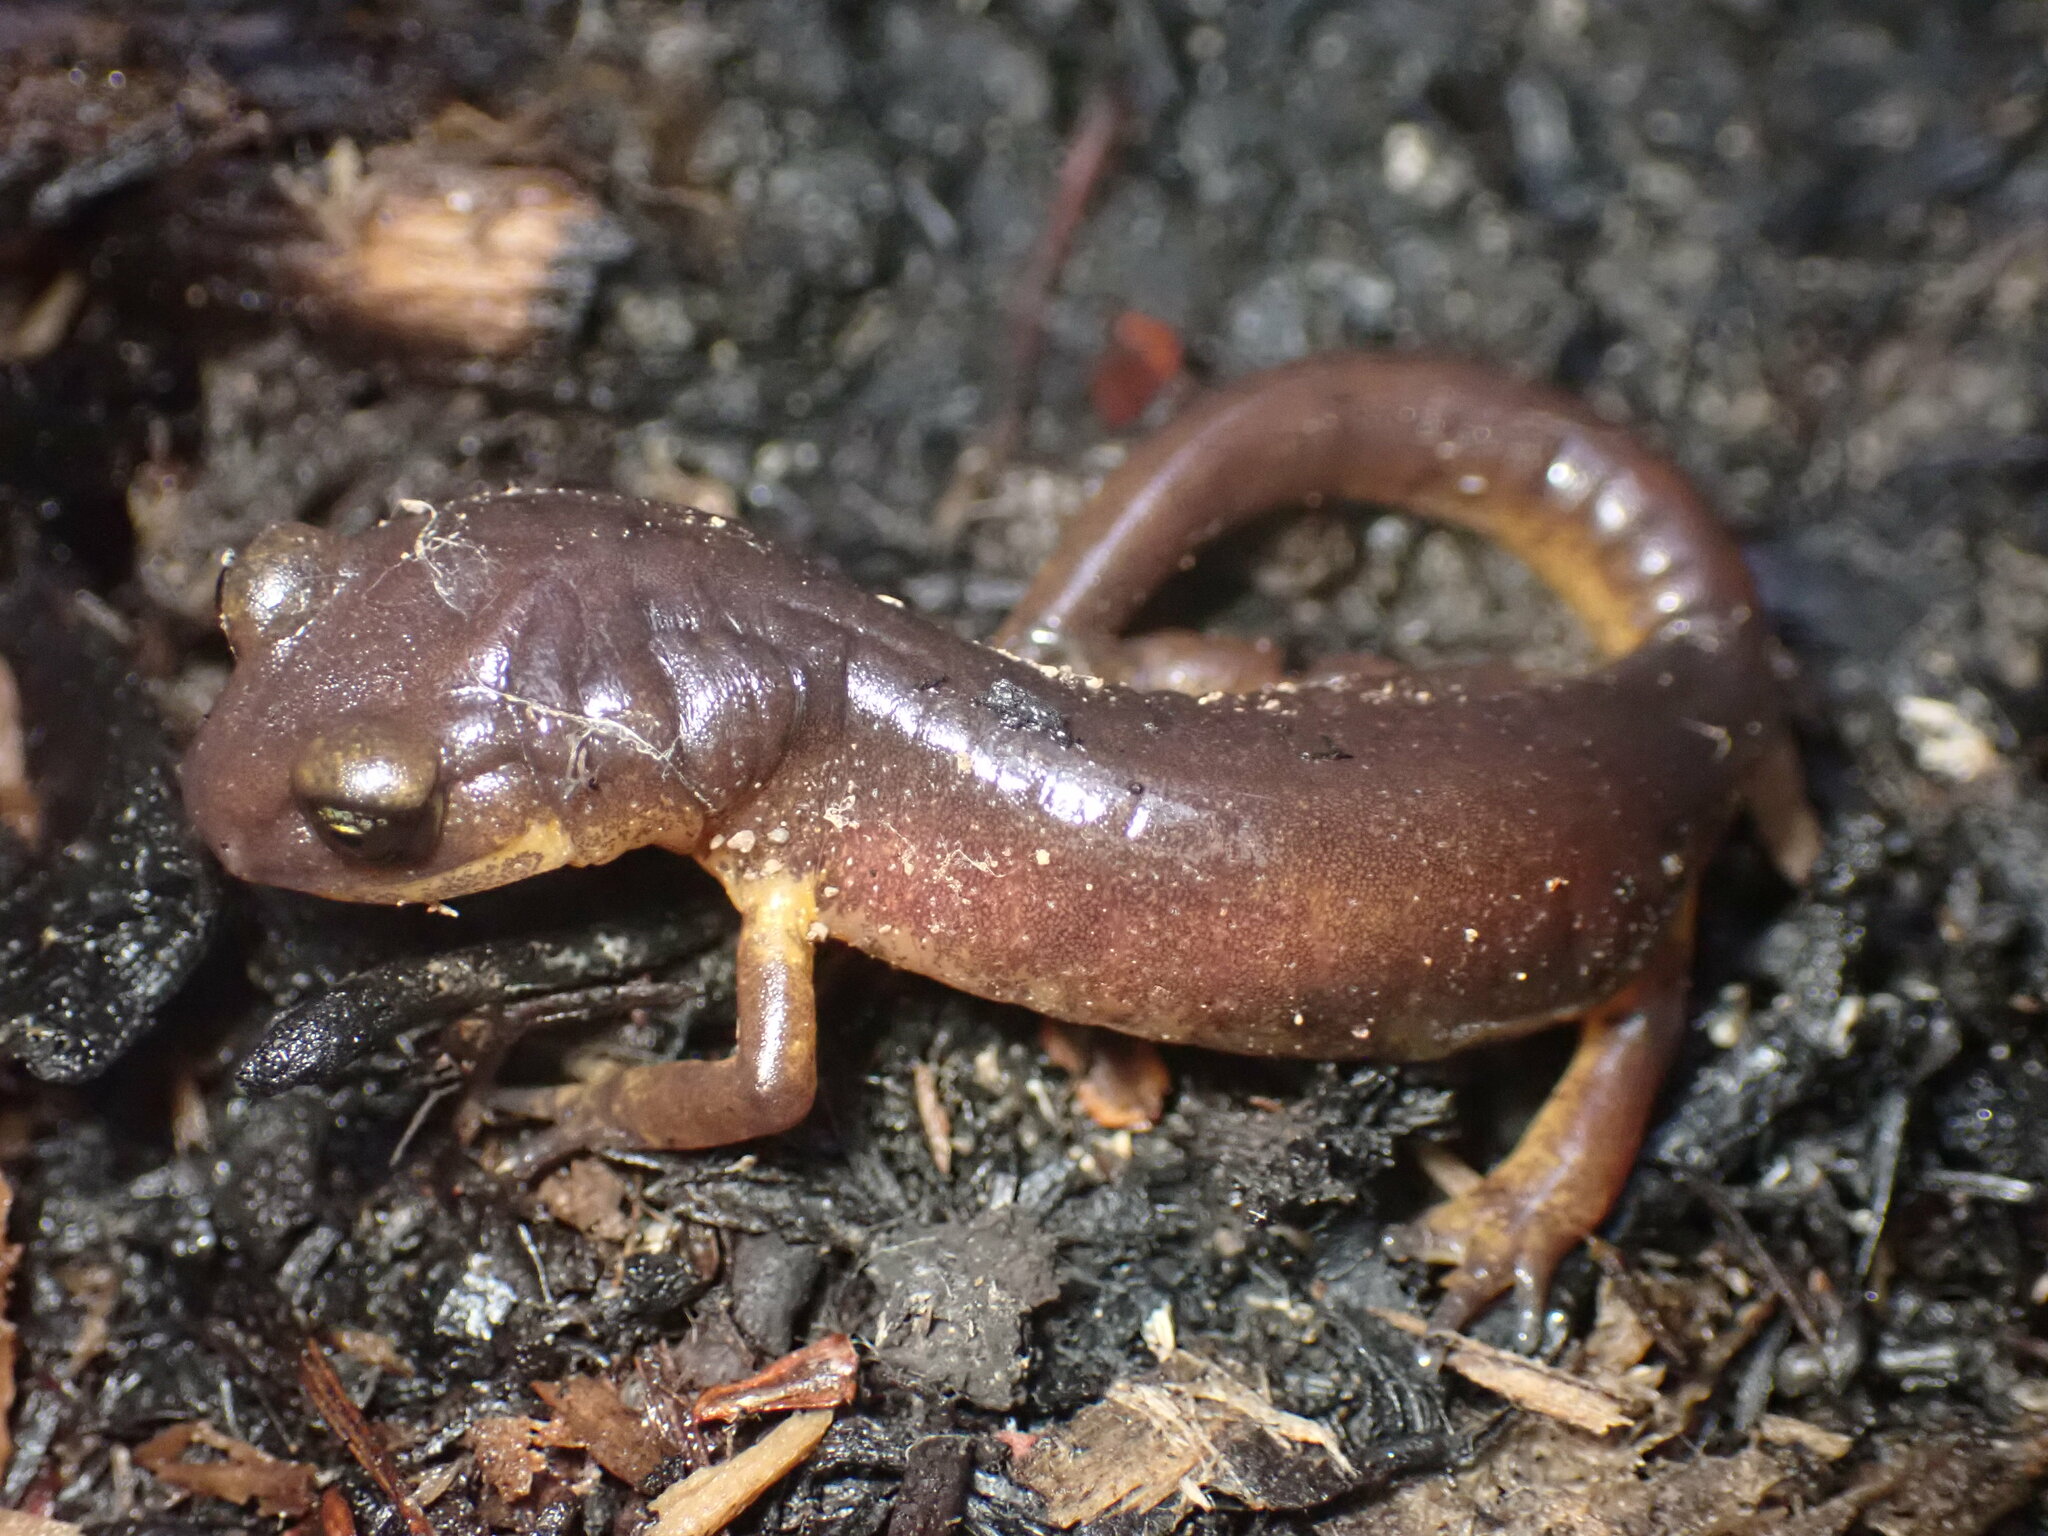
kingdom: Animalia
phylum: Chordata
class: Amphibia
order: Caudata
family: Plethodontidae
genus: Ensatina
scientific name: Ensatina eschscholtzii
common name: Ensatina
